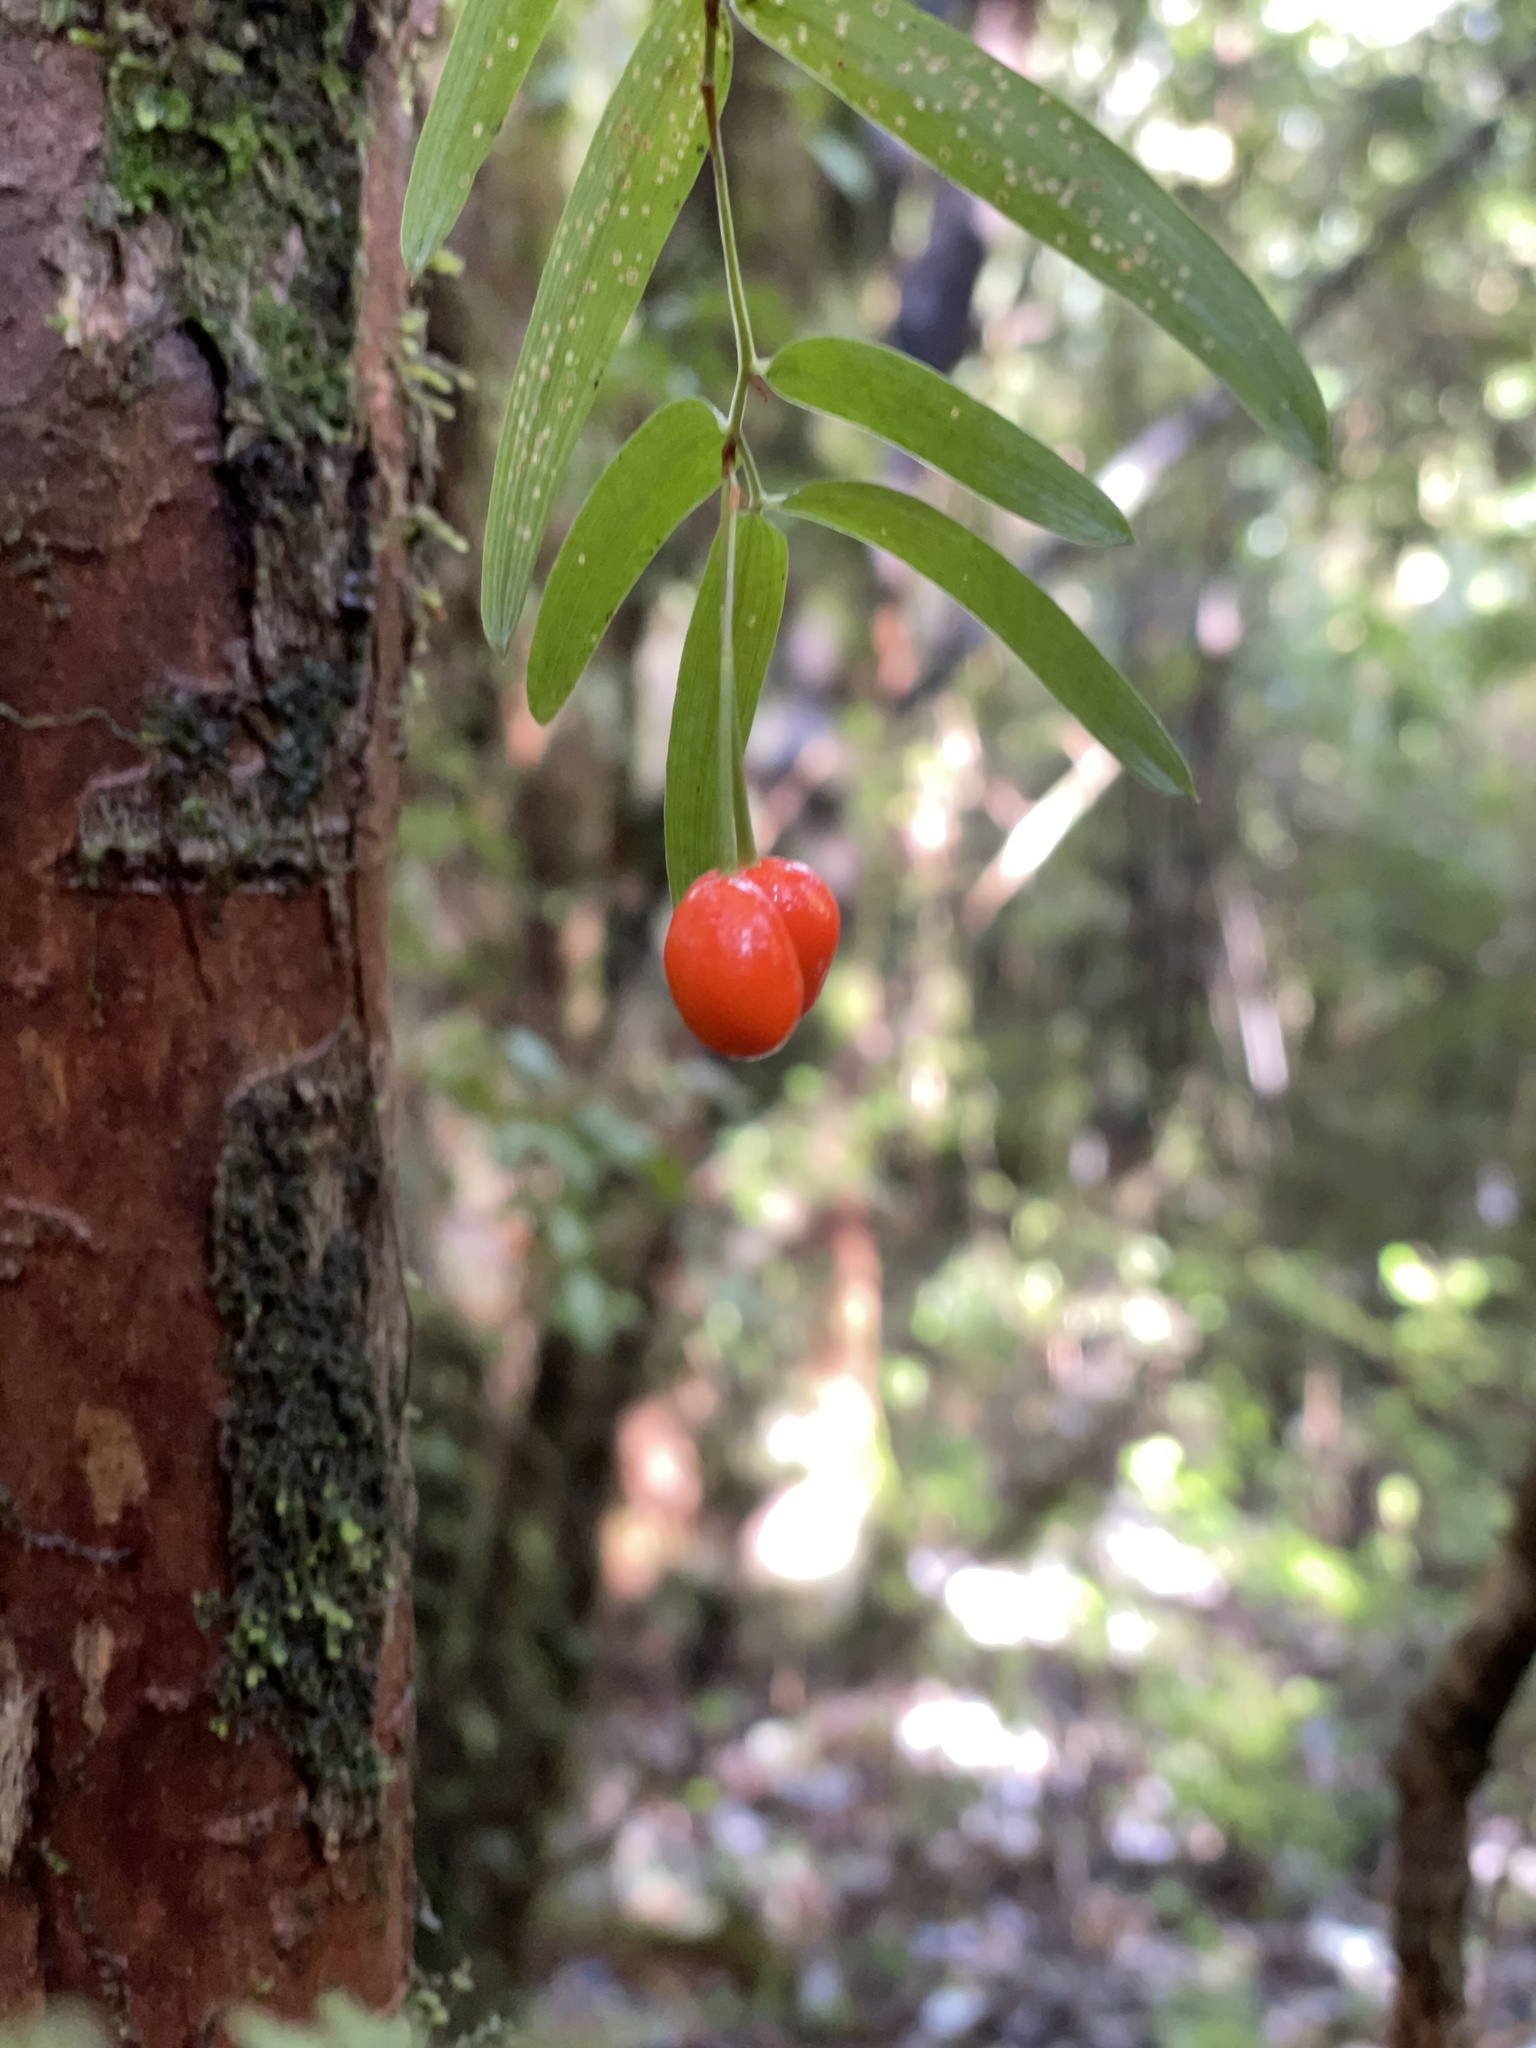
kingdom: Plantae
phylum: Tracheophyta
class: Liliopsida
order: Liliales
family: Alstroemeriaceae
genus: Luzuriaga
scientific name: Luzuriaga radicans
